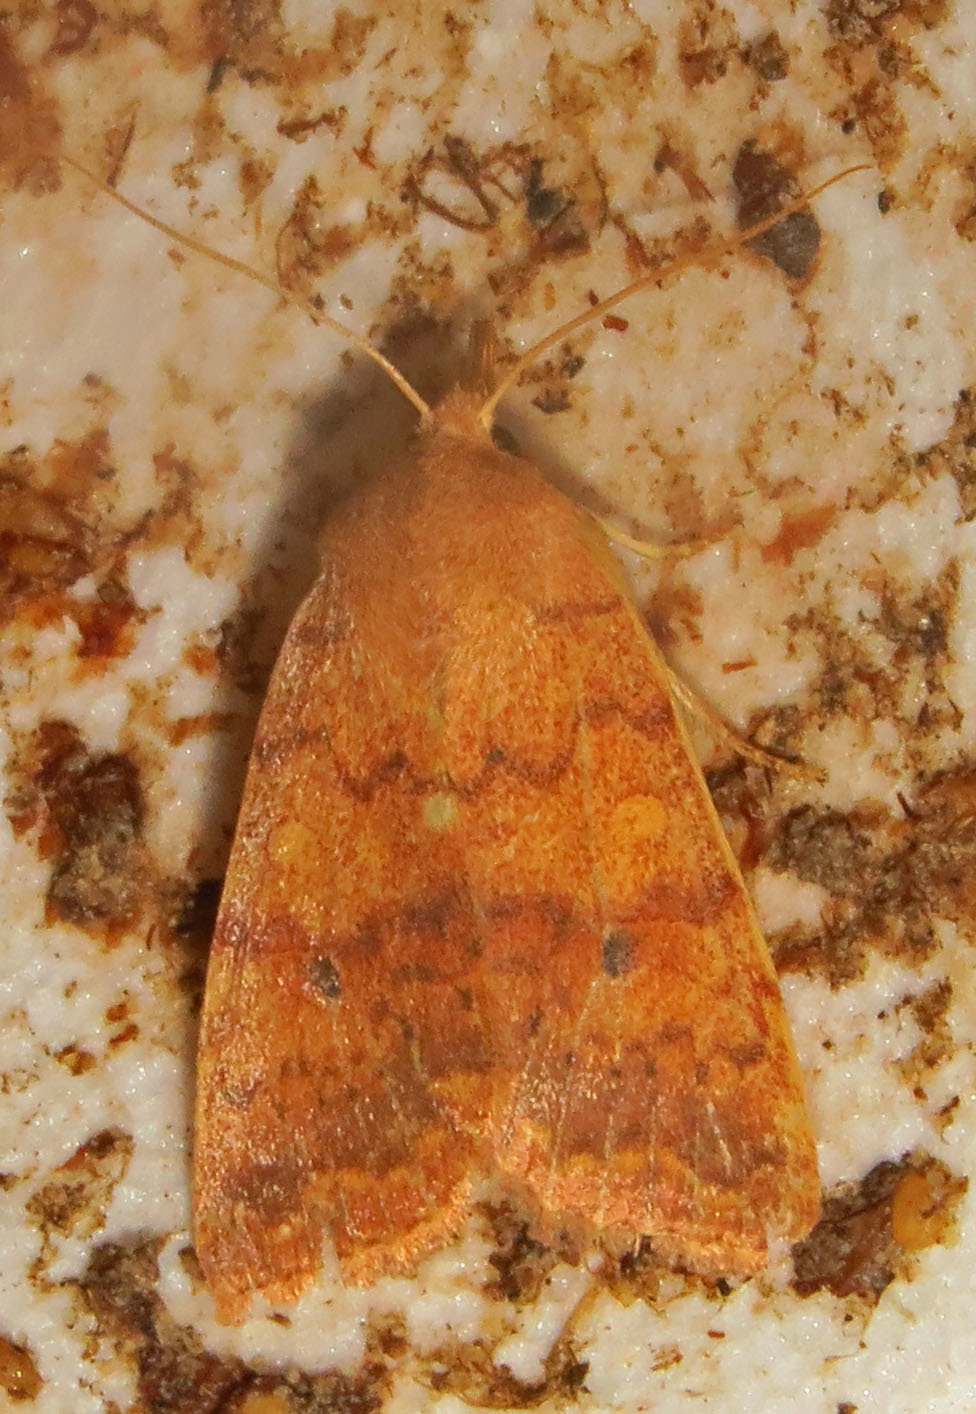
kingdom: Animalia
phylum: Arthropoda
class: Insecta
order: Lepidoptera
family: Noctuidae
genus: Agrochola
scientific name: Agrochola bicolorago
